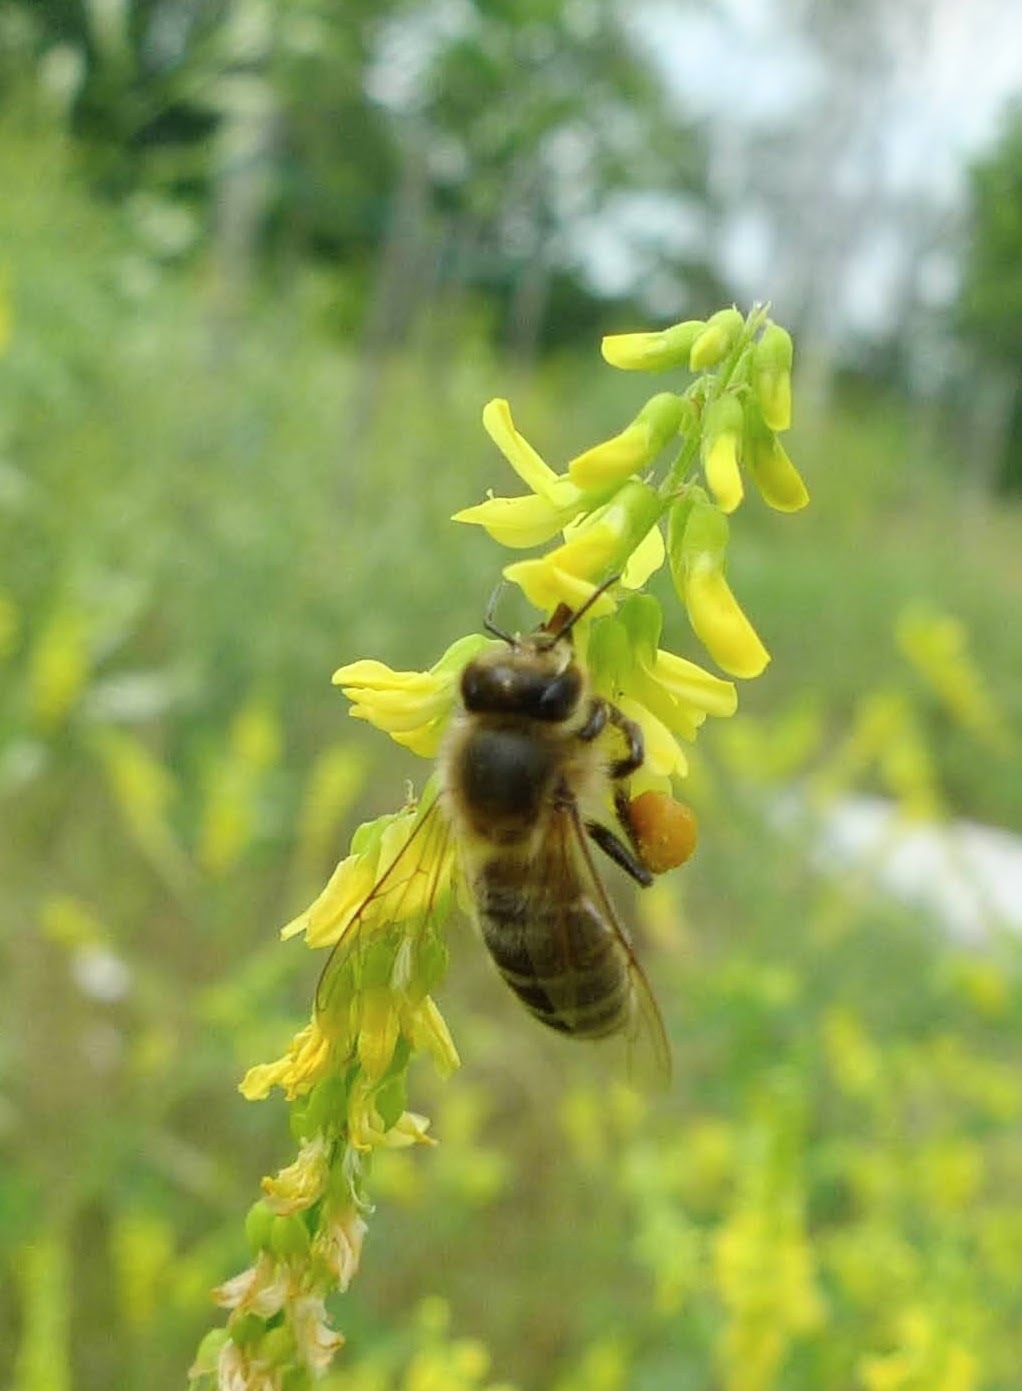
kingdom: Animalia
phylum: Arthropoda
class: Insecta
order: Hymenoptera
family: Apidae
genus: Apis
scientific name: Apis mellifera
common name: Honey bee
